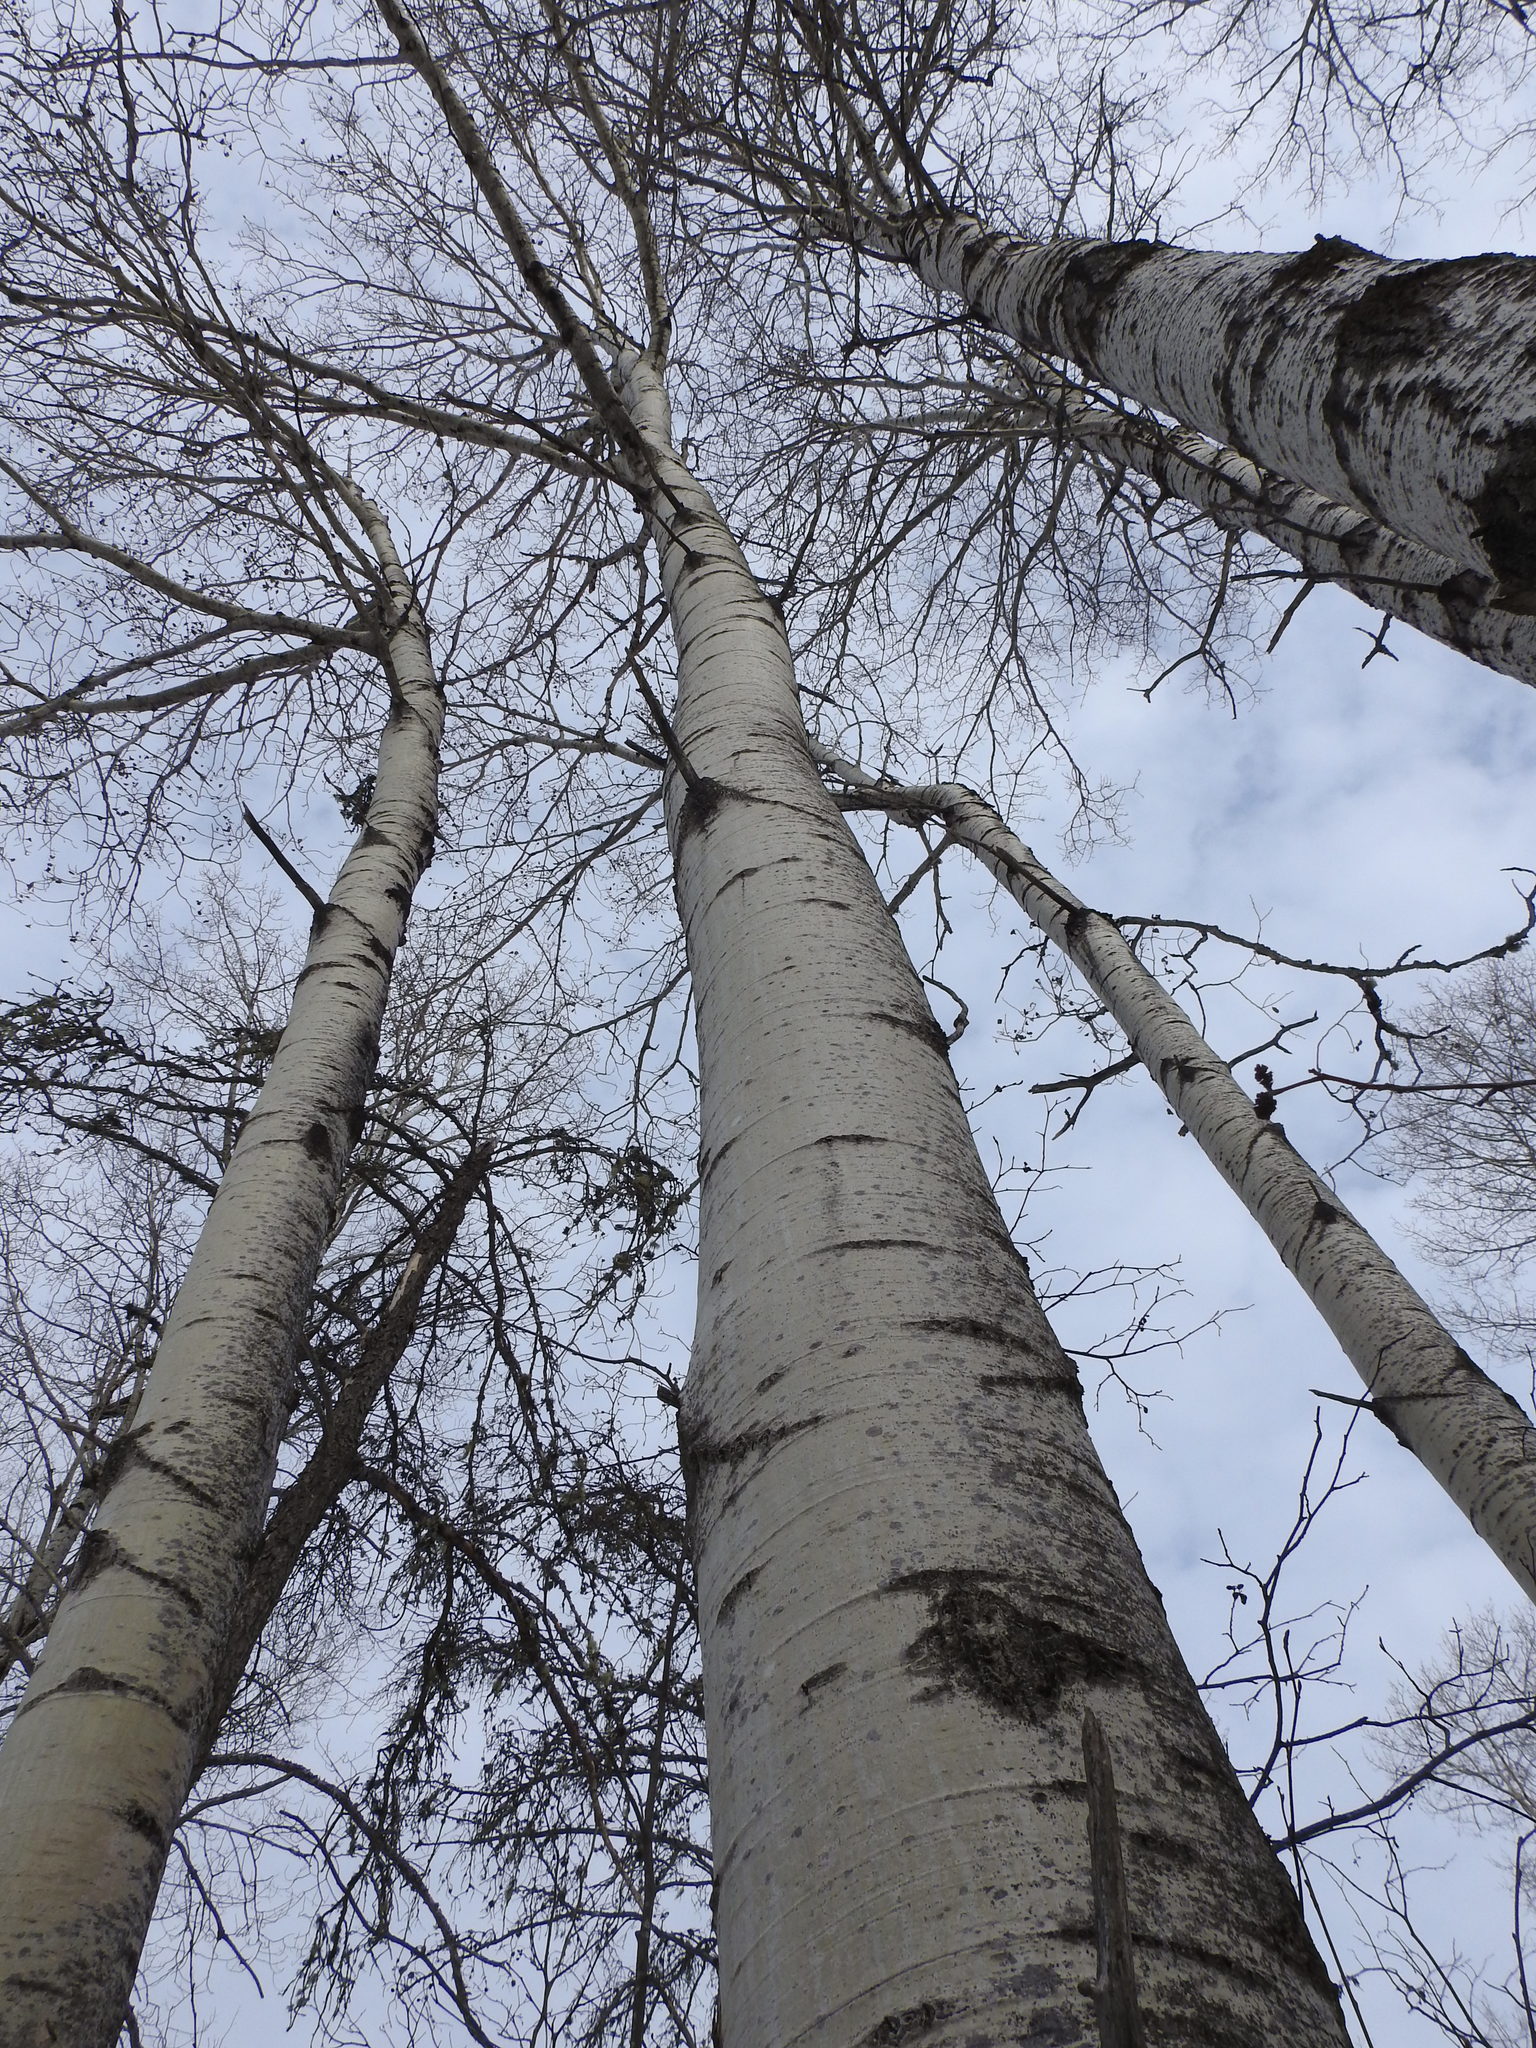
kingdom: Plantae
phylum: Tracheophyta
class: Magnoliopsida
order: Malpighiales
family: Salicaceae
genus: Populus
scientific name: Populus tremuloides
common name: Quaking aspen
